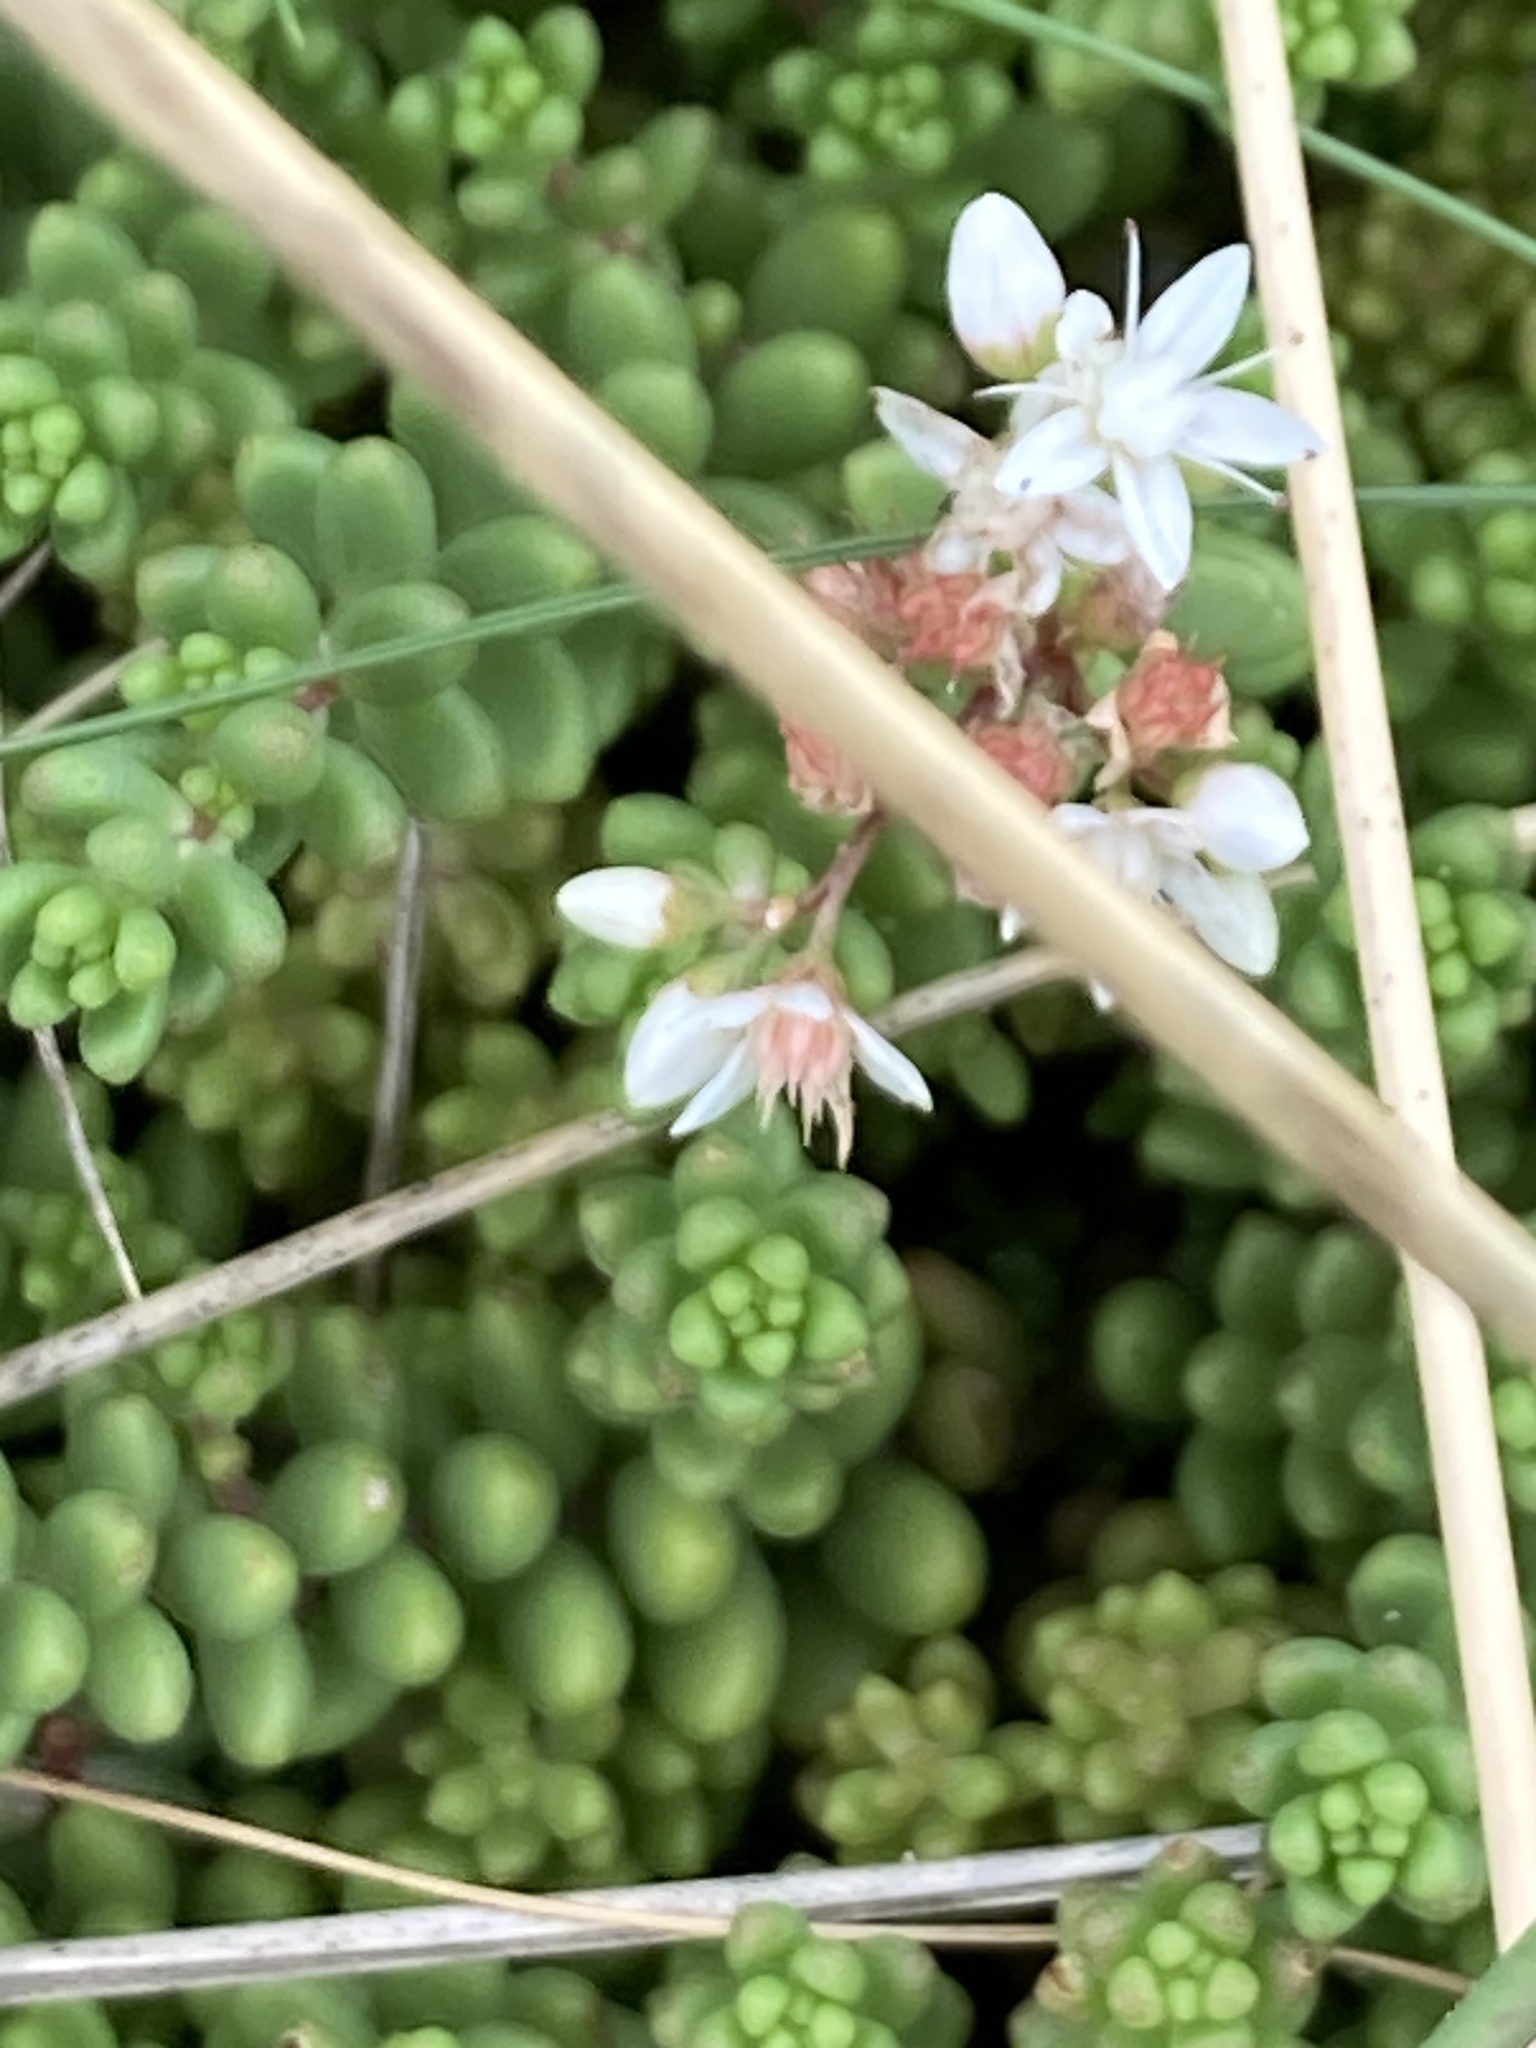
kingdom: Plantae
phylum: Tracheophyta
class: Magnoliopsida
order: Saxifragales
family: Crassulaceae
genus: Sedum
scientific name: Sedum album
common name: White stonecrop
